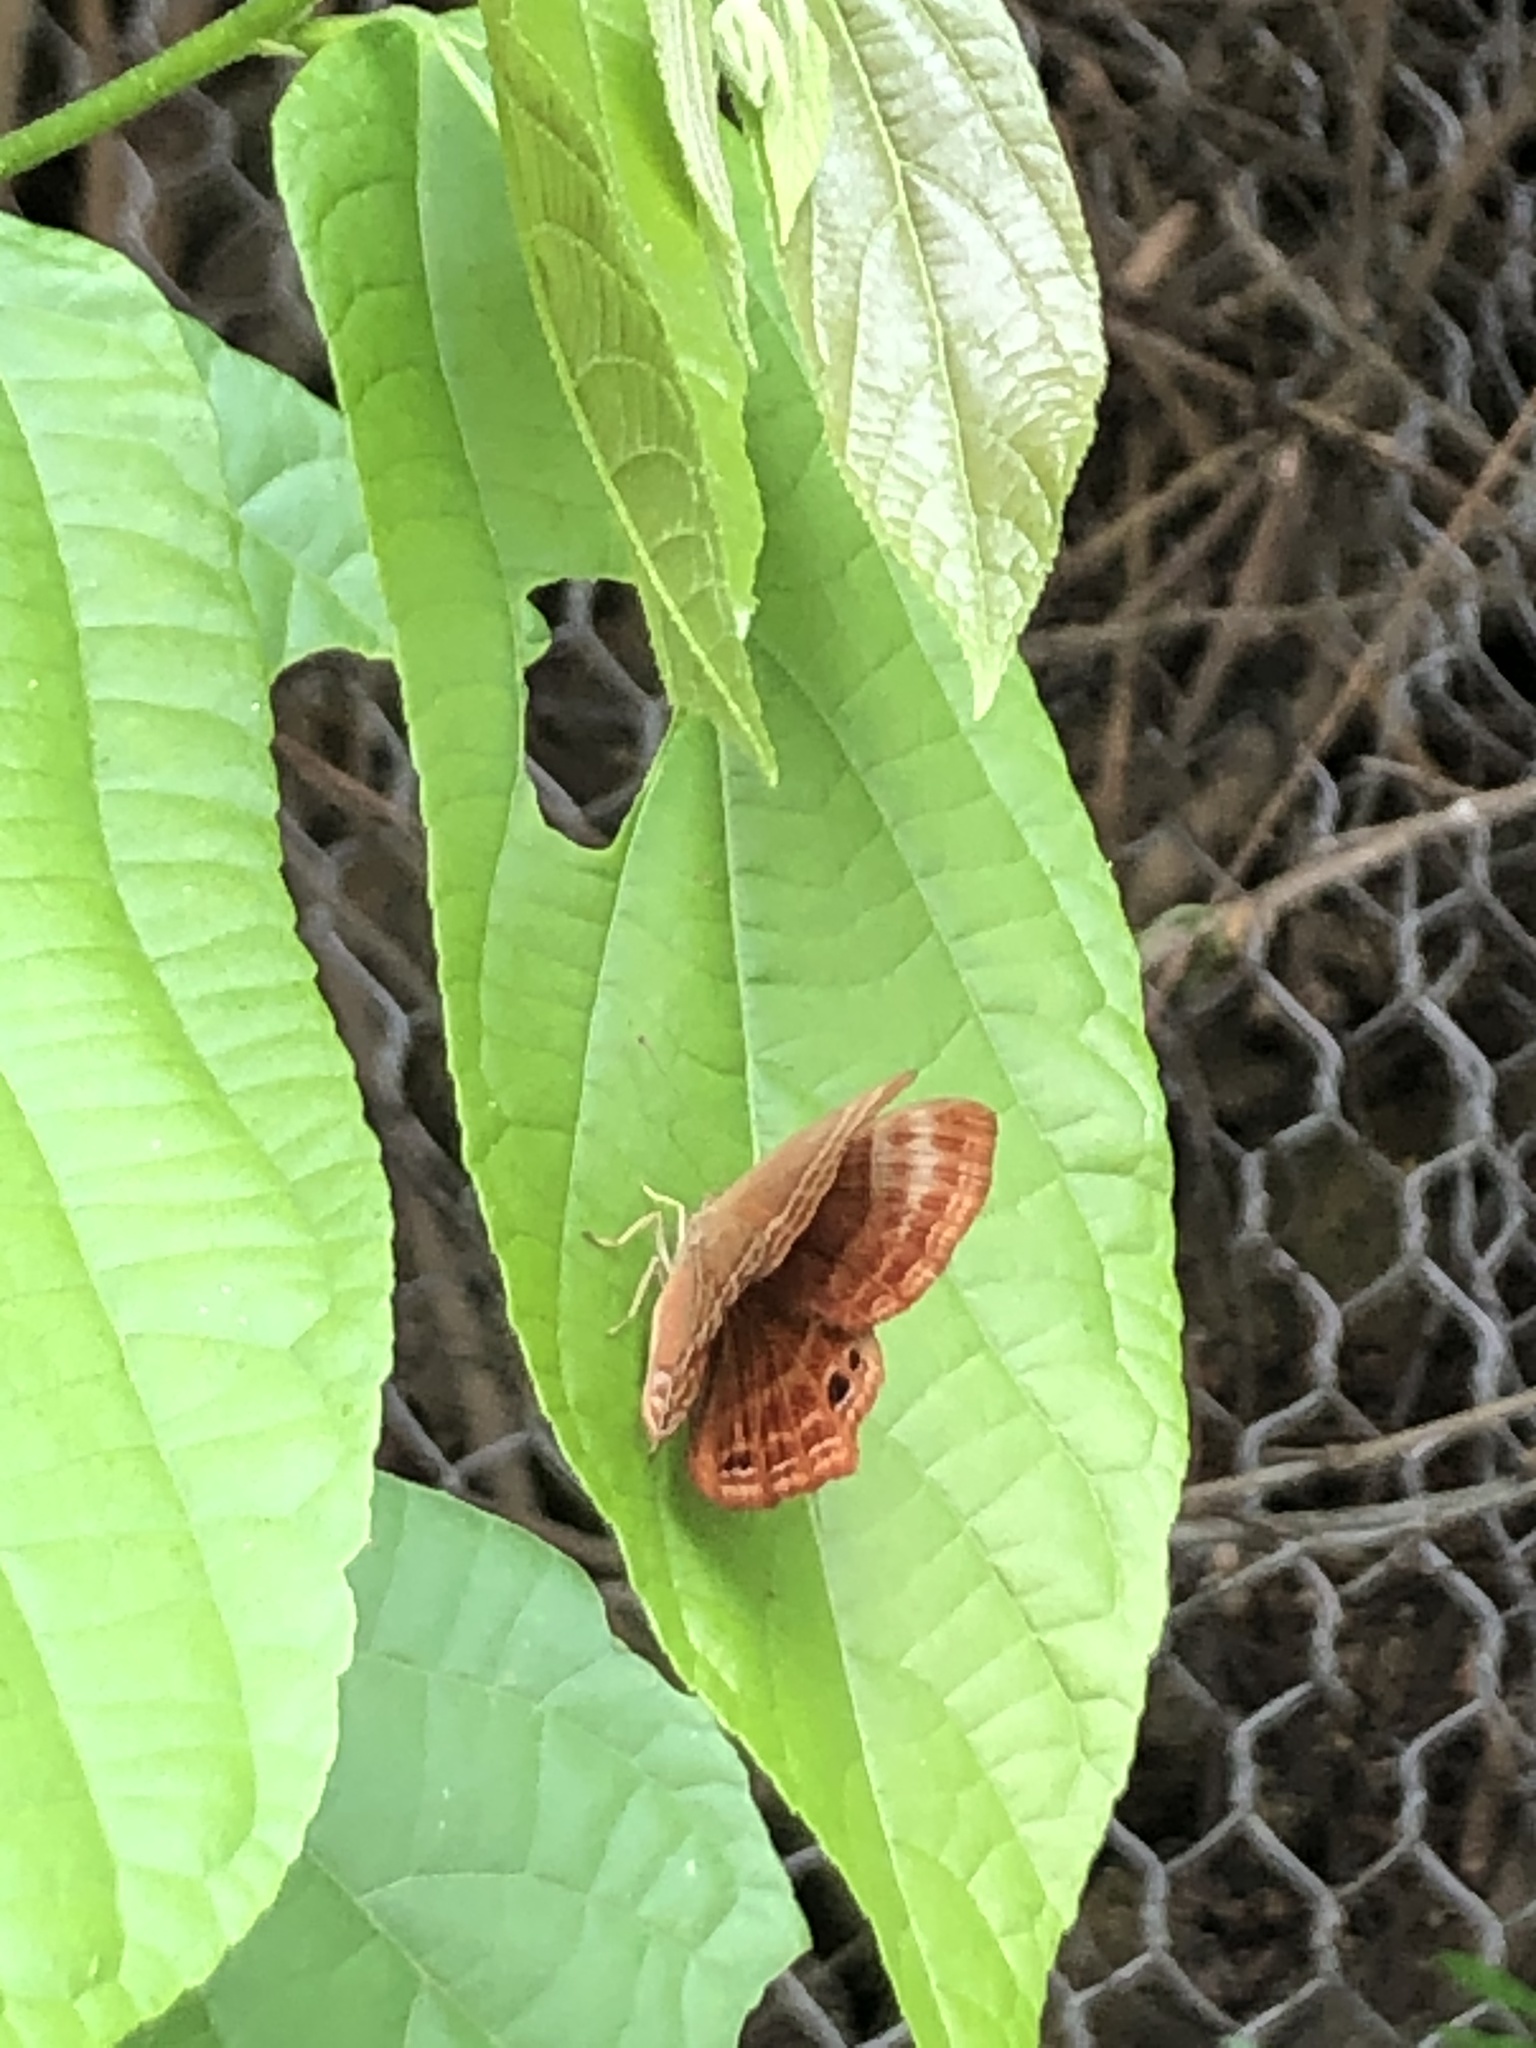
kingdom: Animalia
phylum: Arthropoda
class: Insecta
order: Lepidoptera
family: Lycaenidae
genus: Abisara
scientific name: Abisara echeria
